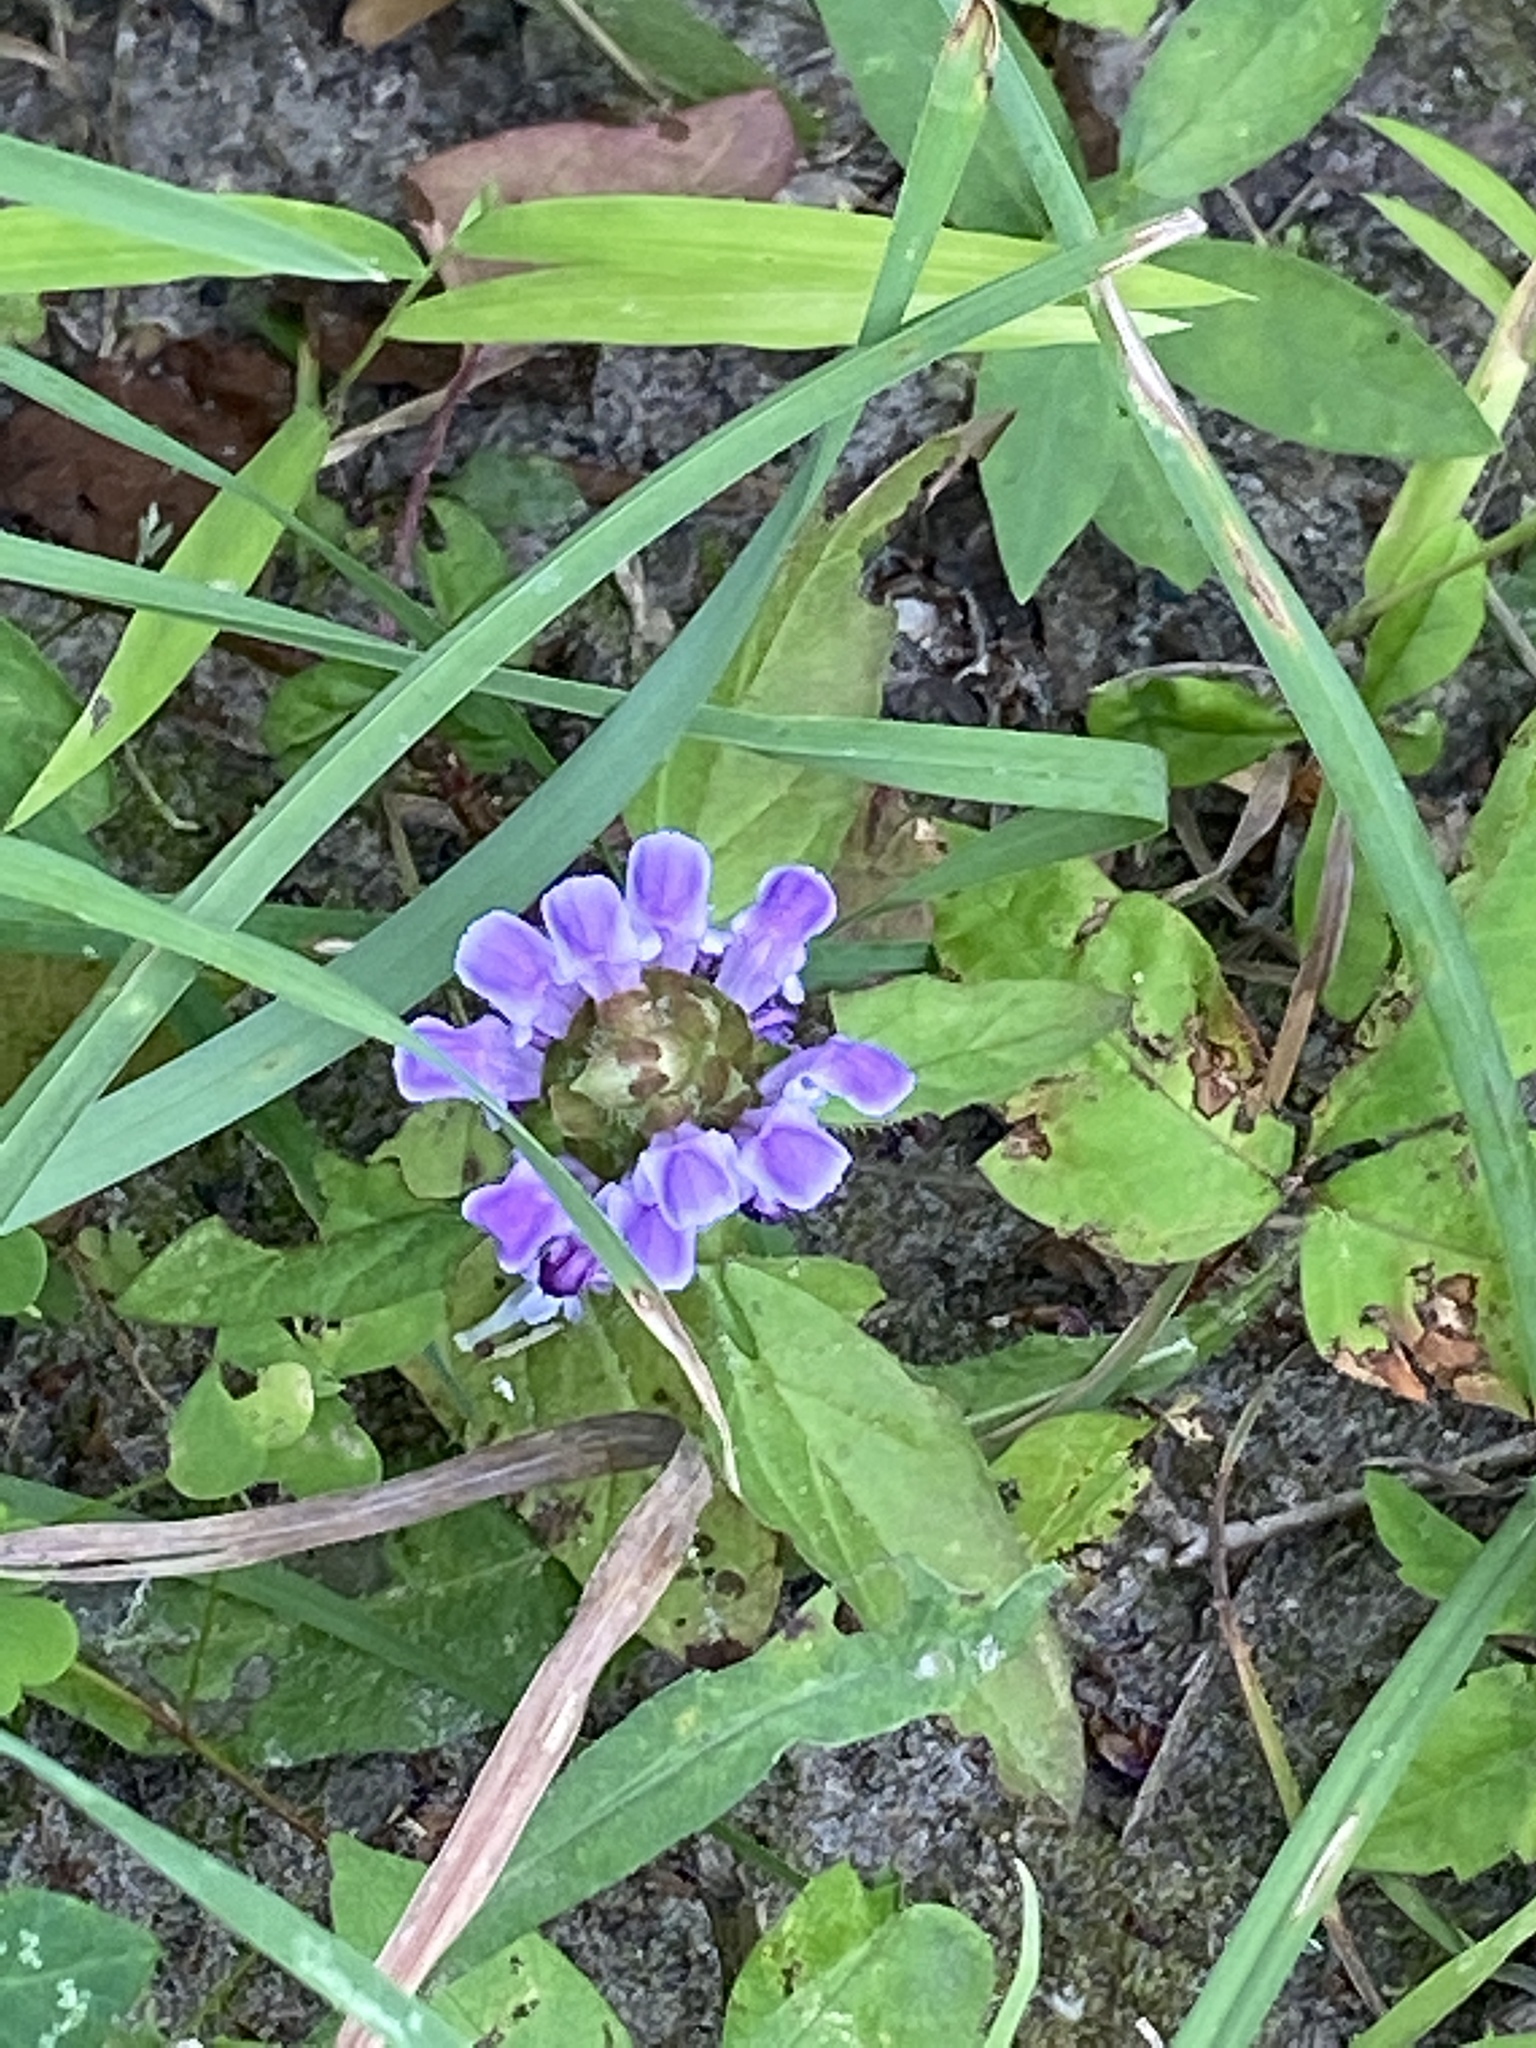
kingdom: Plantae
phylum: Tracheophyta
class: Magnoliopsida
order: Lamiales
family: Lamiaceae
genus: Prunella
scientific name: Prunella vulgaris
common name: Heal-all
